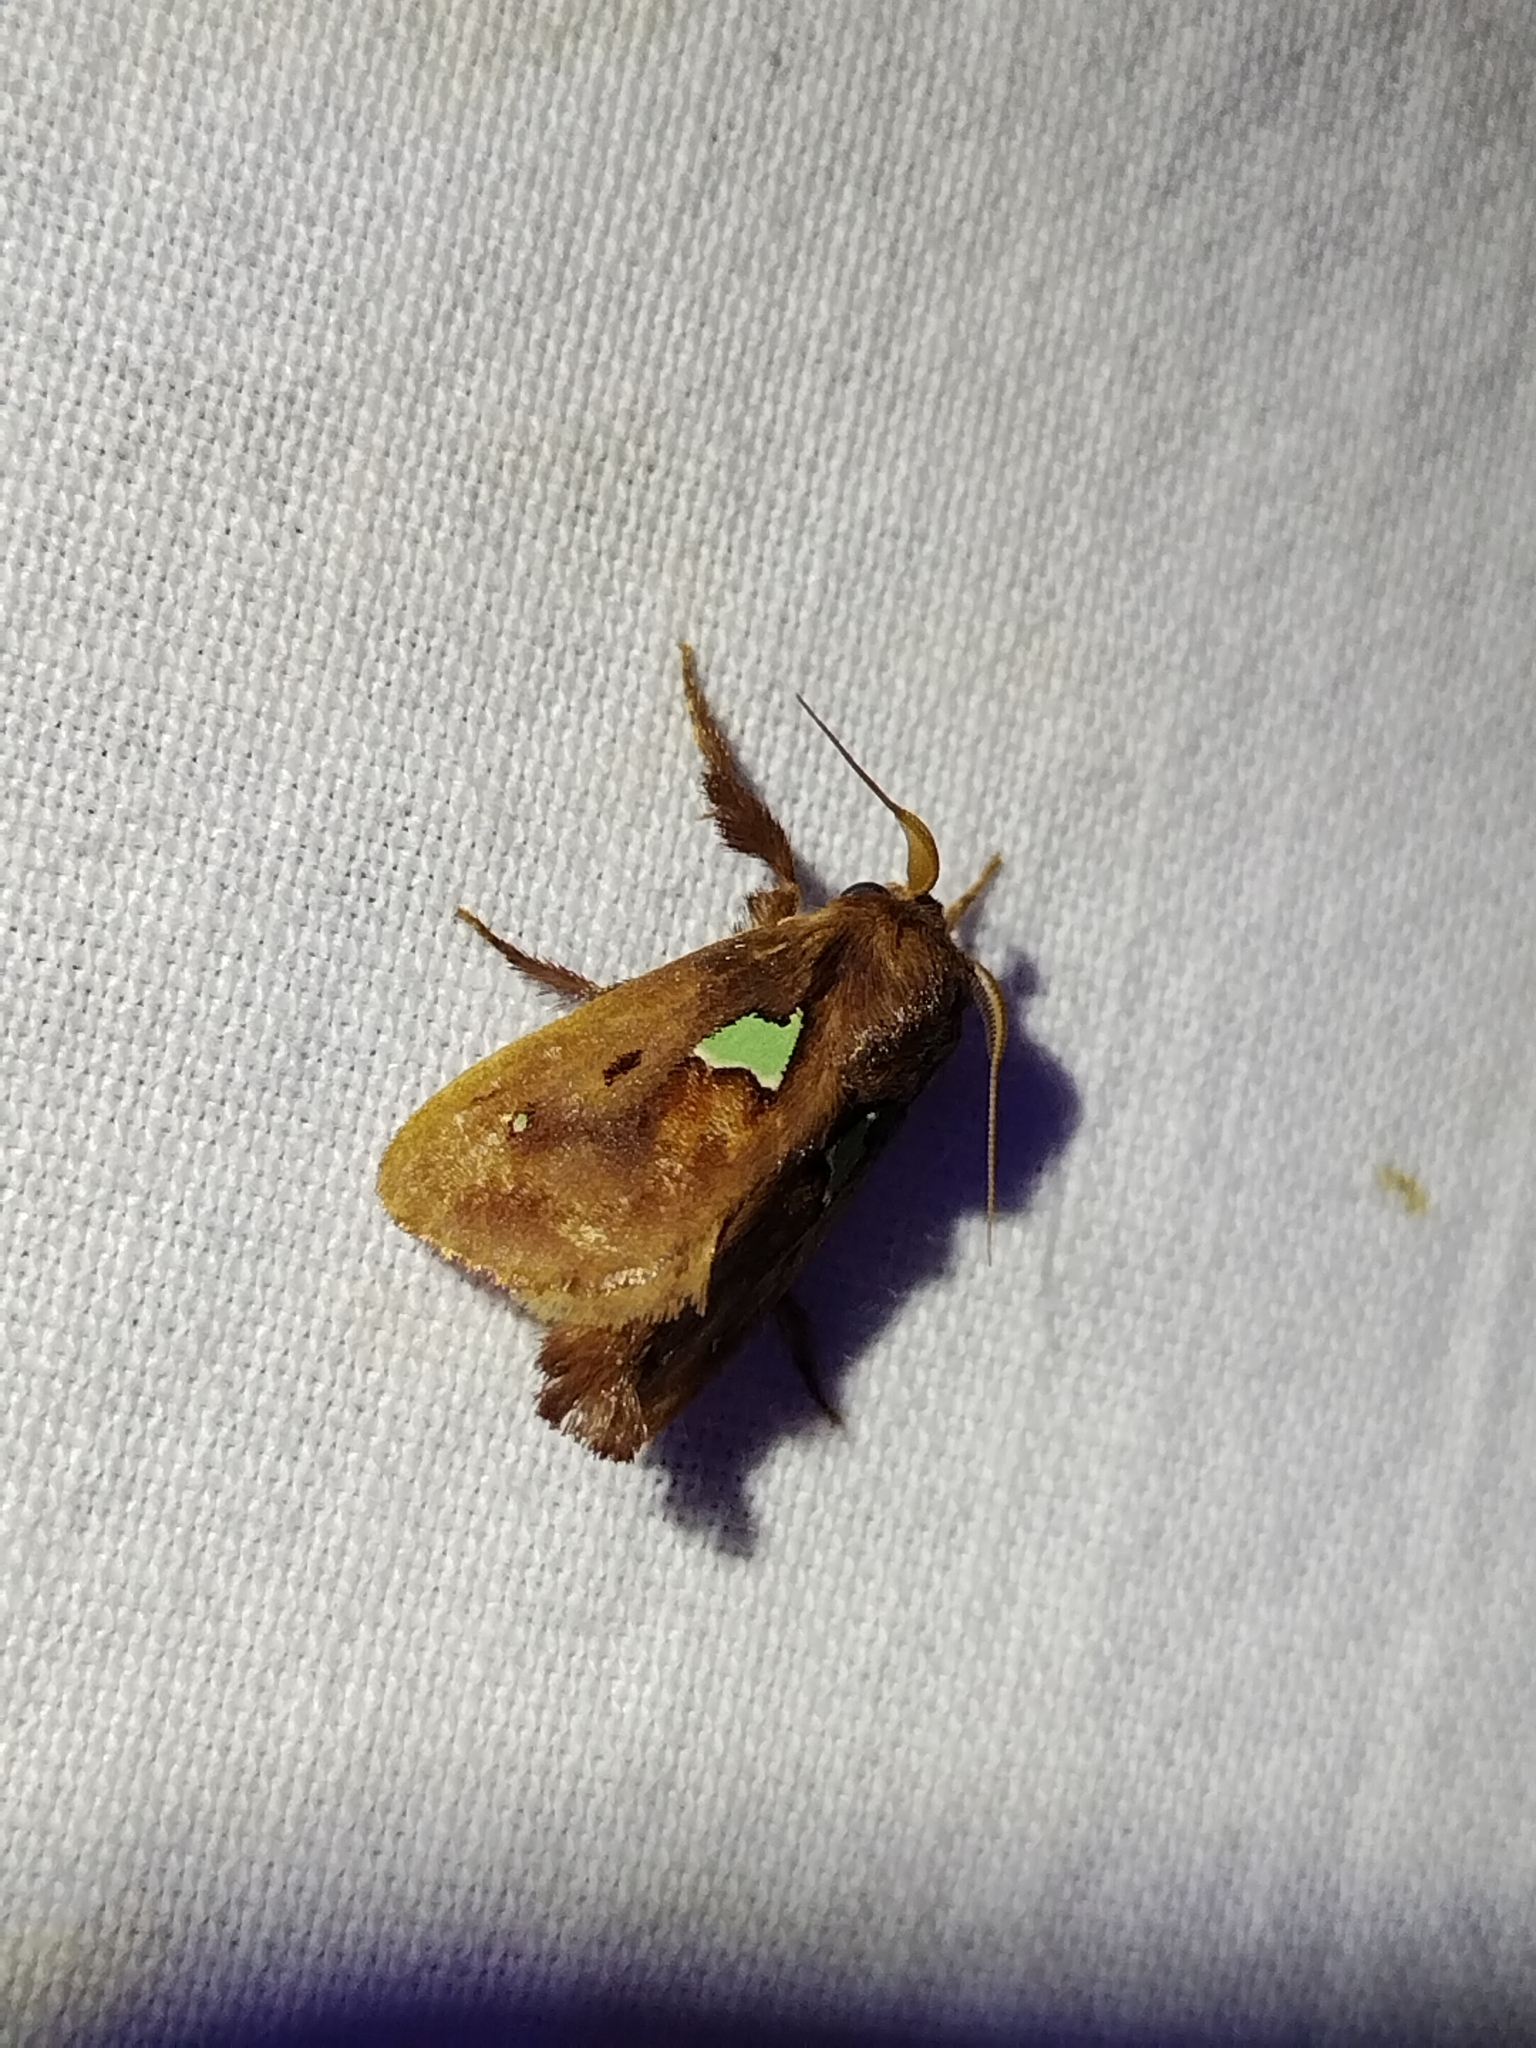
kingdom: Animalia
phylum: Arthropoda
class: Insecta
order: Lepidoptera
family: Limacodidae
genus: Euclea
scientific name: Euclea delphinii
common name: Spiny oak-slug moth
